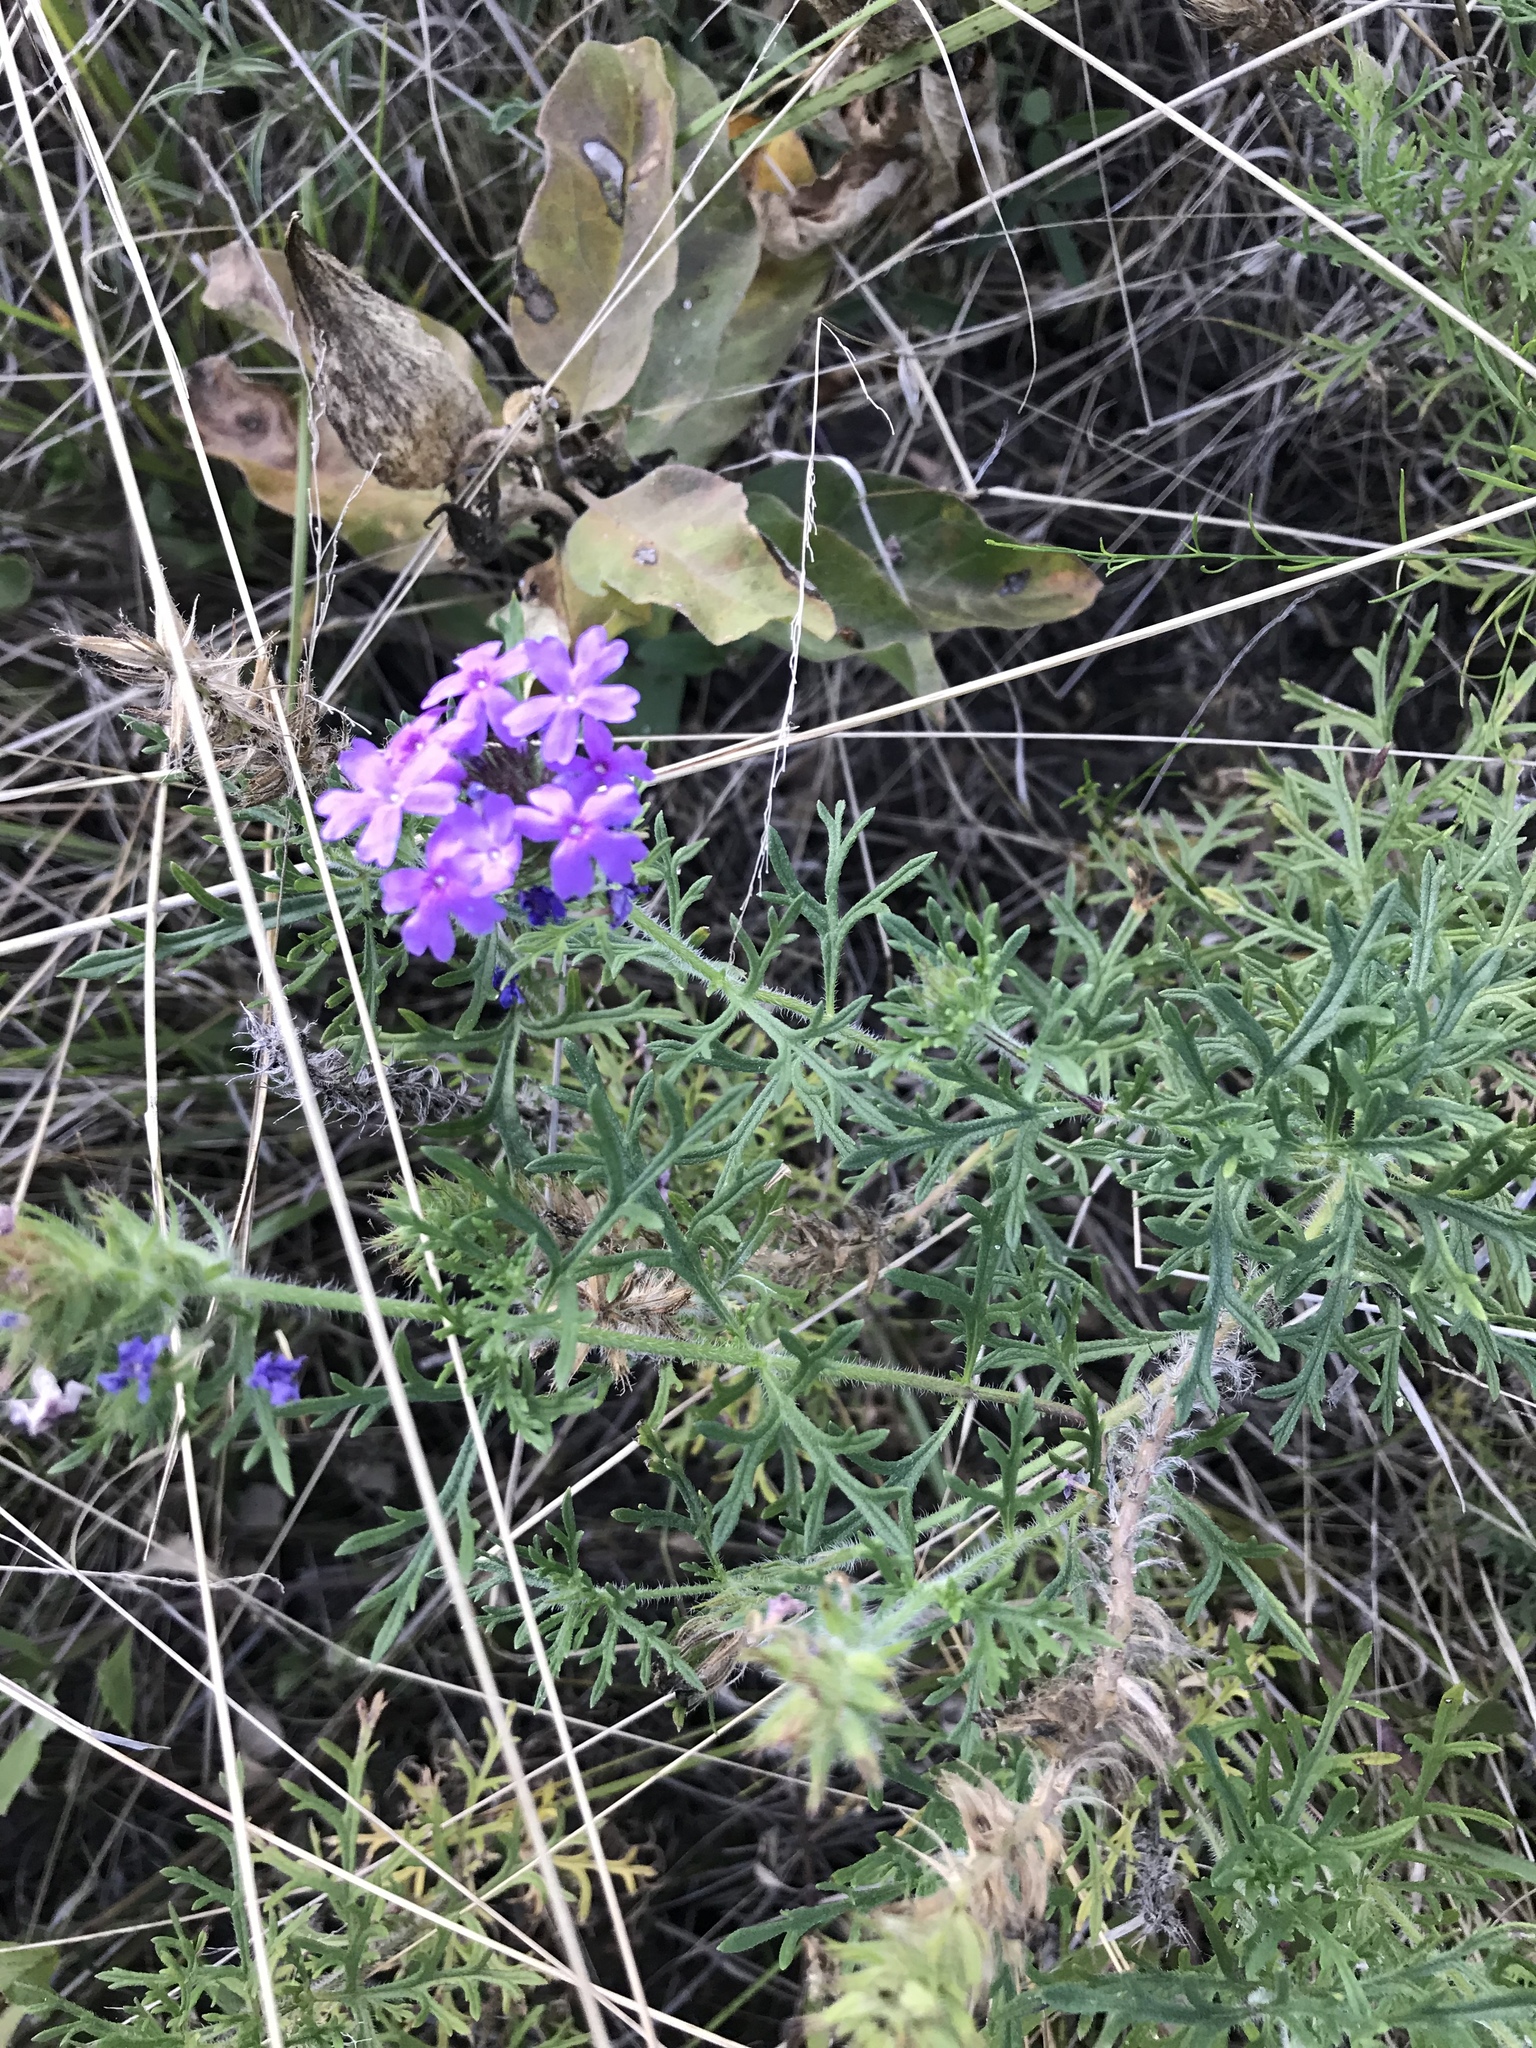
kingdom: Plantae
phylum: Tracheophyta
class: Magnoliopsida
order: Lamiales
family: Verbenaceae
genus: Verbena
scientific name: Verbena bipinnatifida
